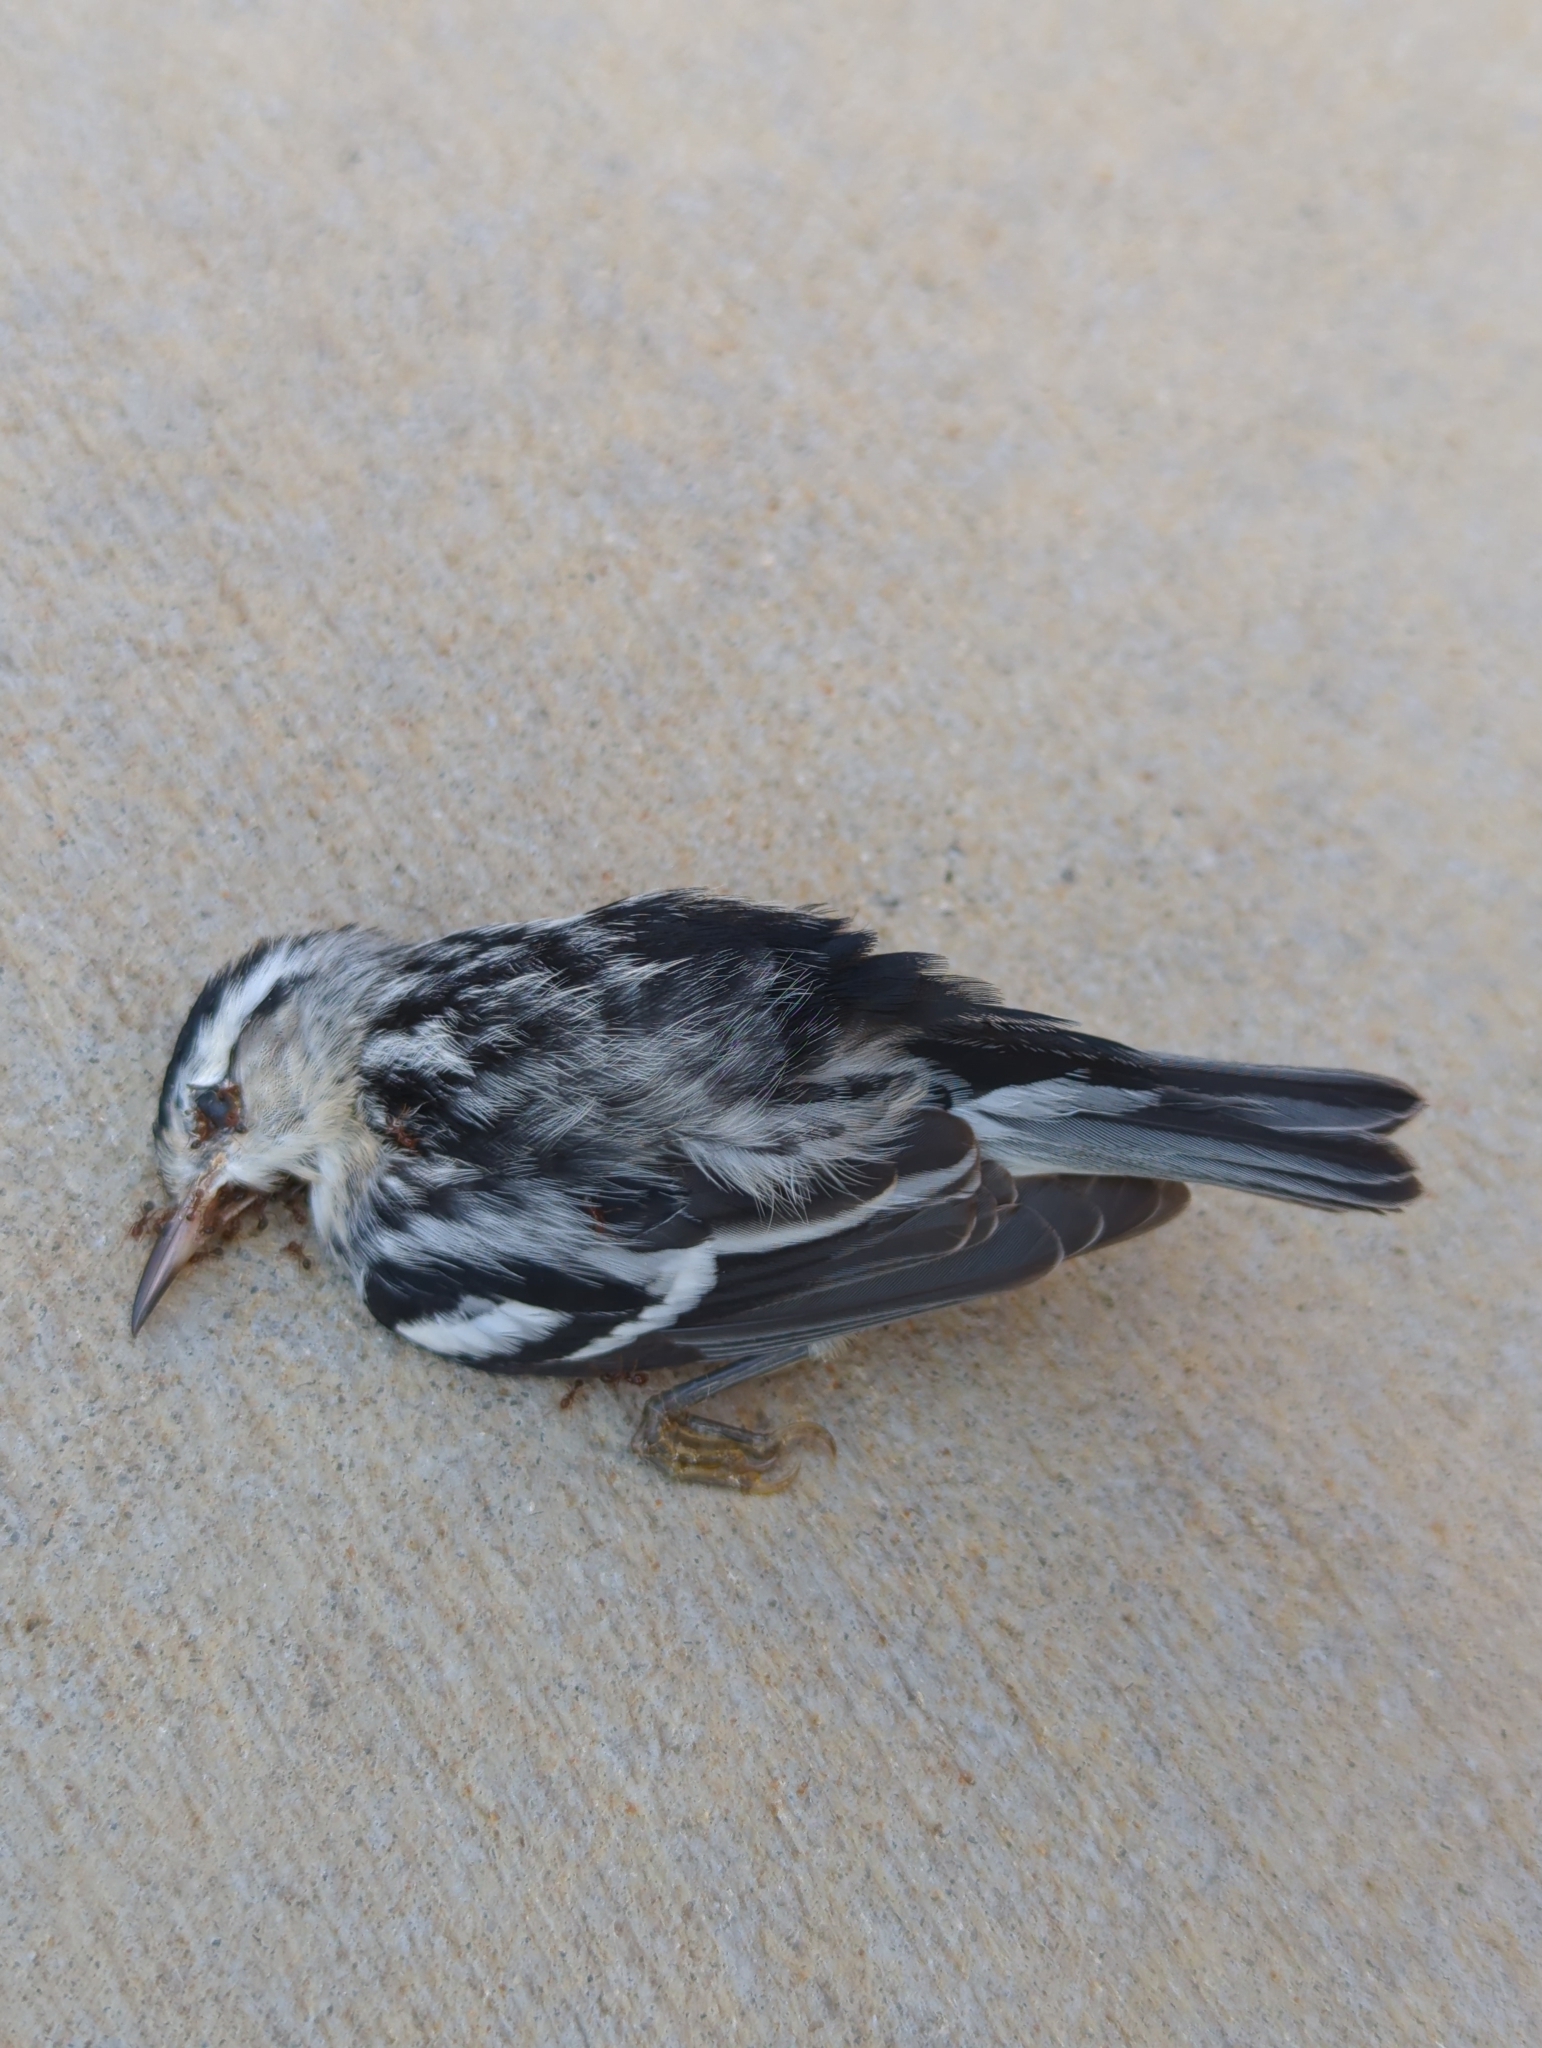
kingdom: Animalia
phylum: Chordata
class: Aves
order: Passeriformes
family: Parulidae
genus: Mniotilta
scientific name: Mniotilta varia
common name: Black-and-white warbler
